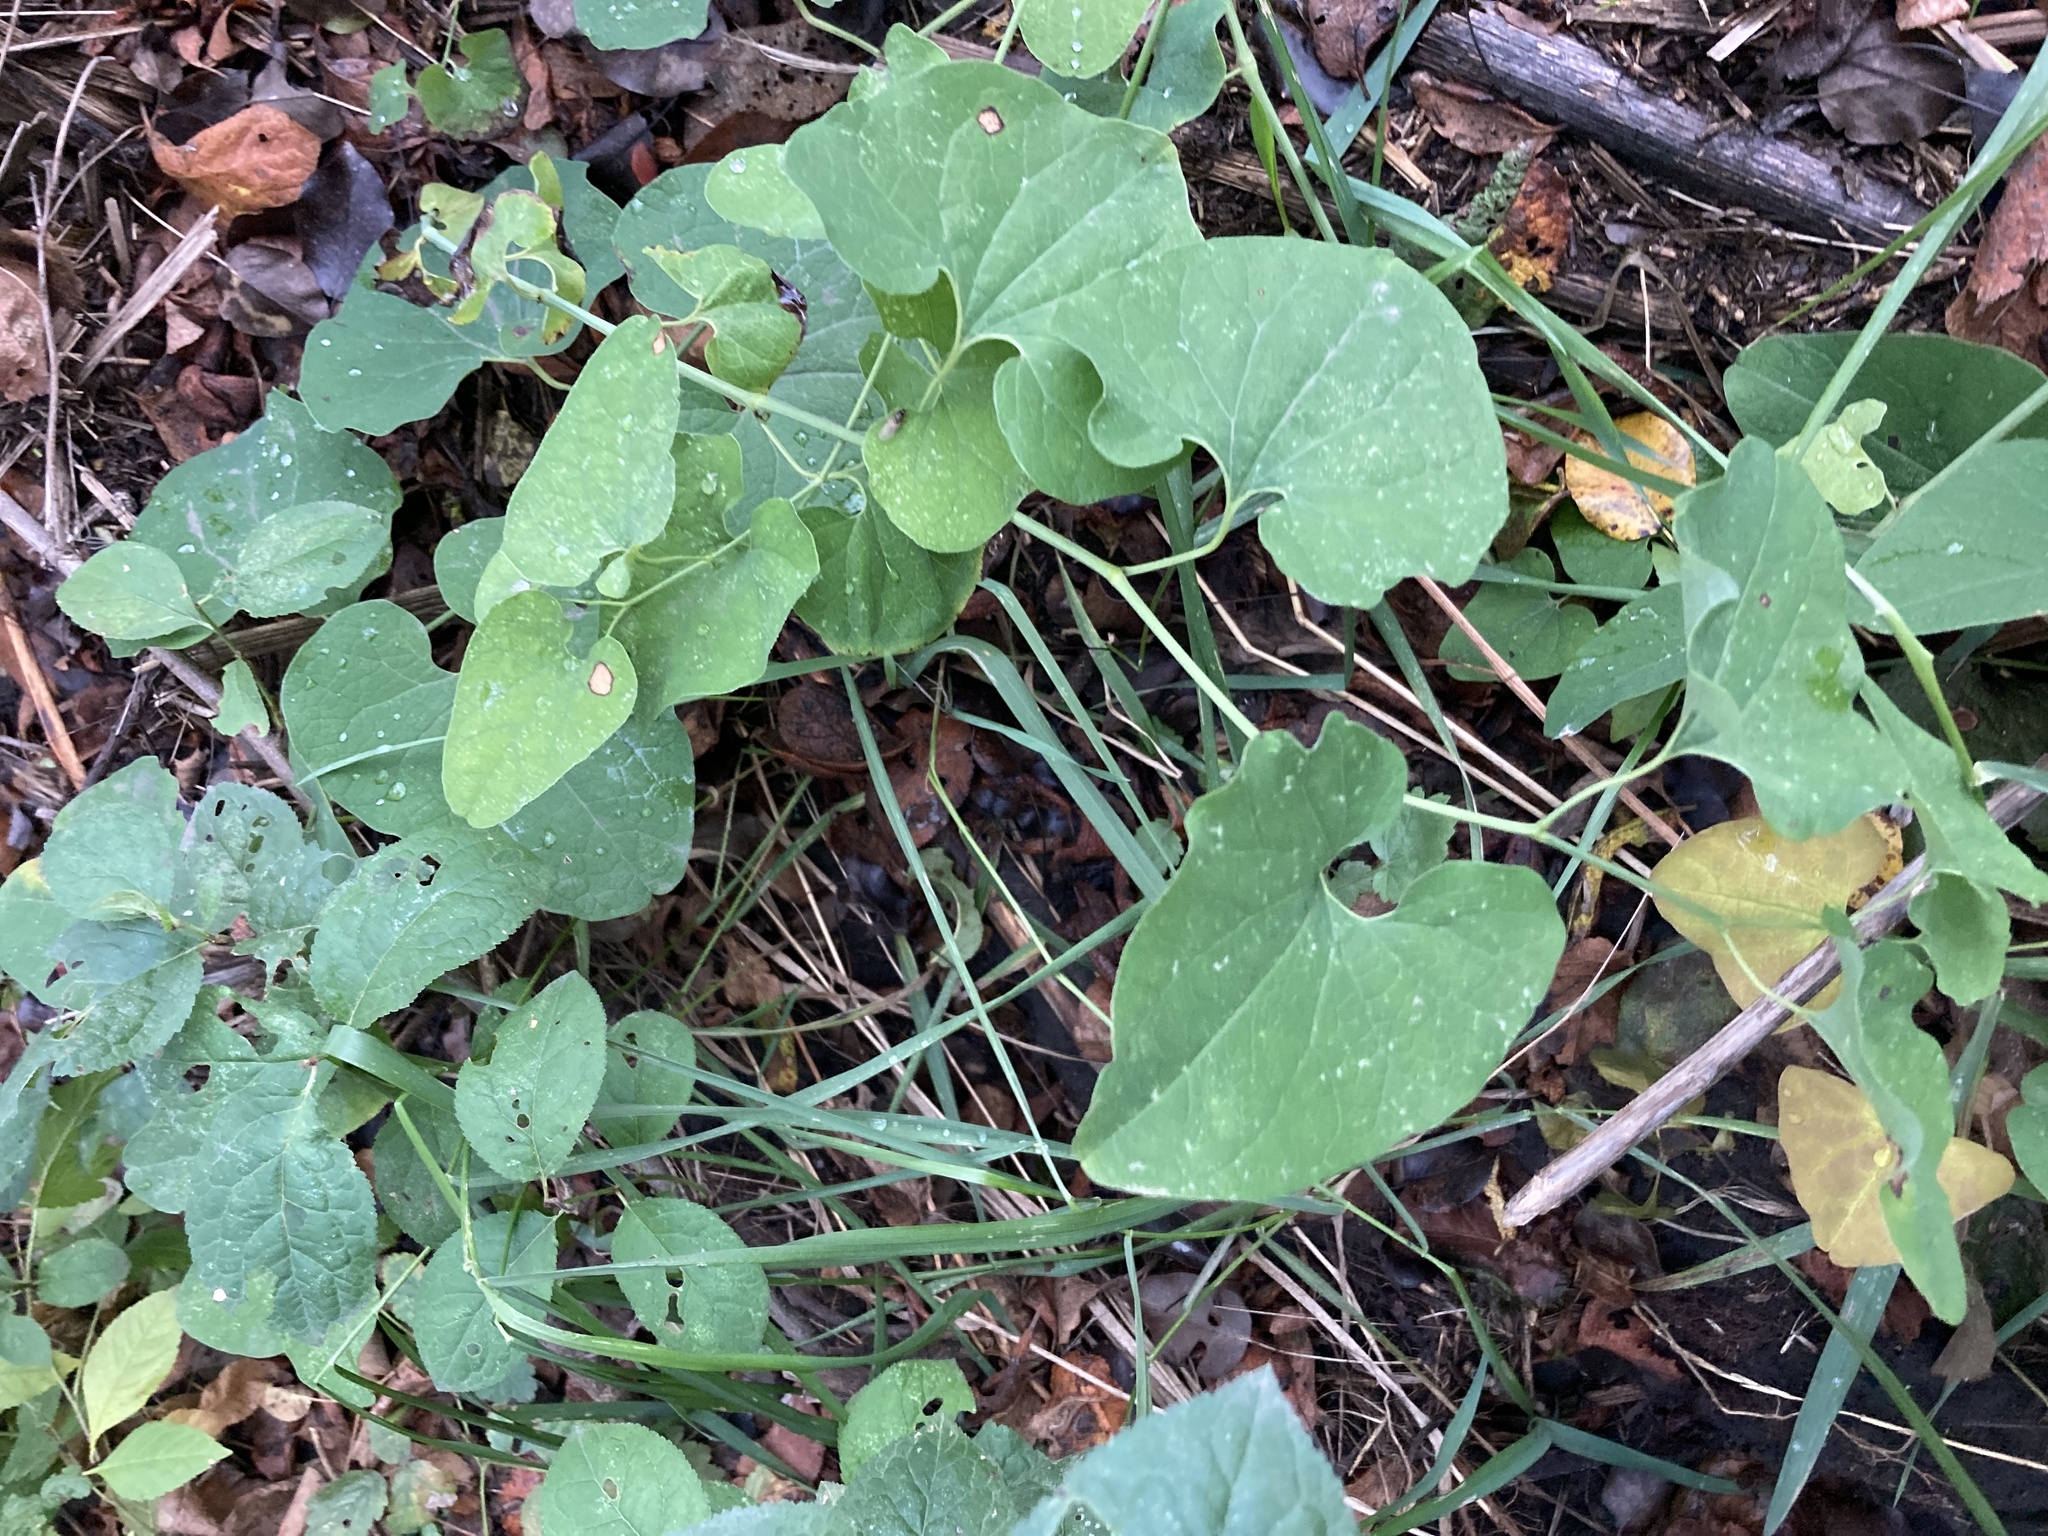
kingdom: Plantae
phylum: Tracheophyta
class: Magnoliopsida
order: Piperales
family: Aristolochiaceae
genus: Aristolochia
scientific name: Aristolochia clematitis
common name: Birthwort
